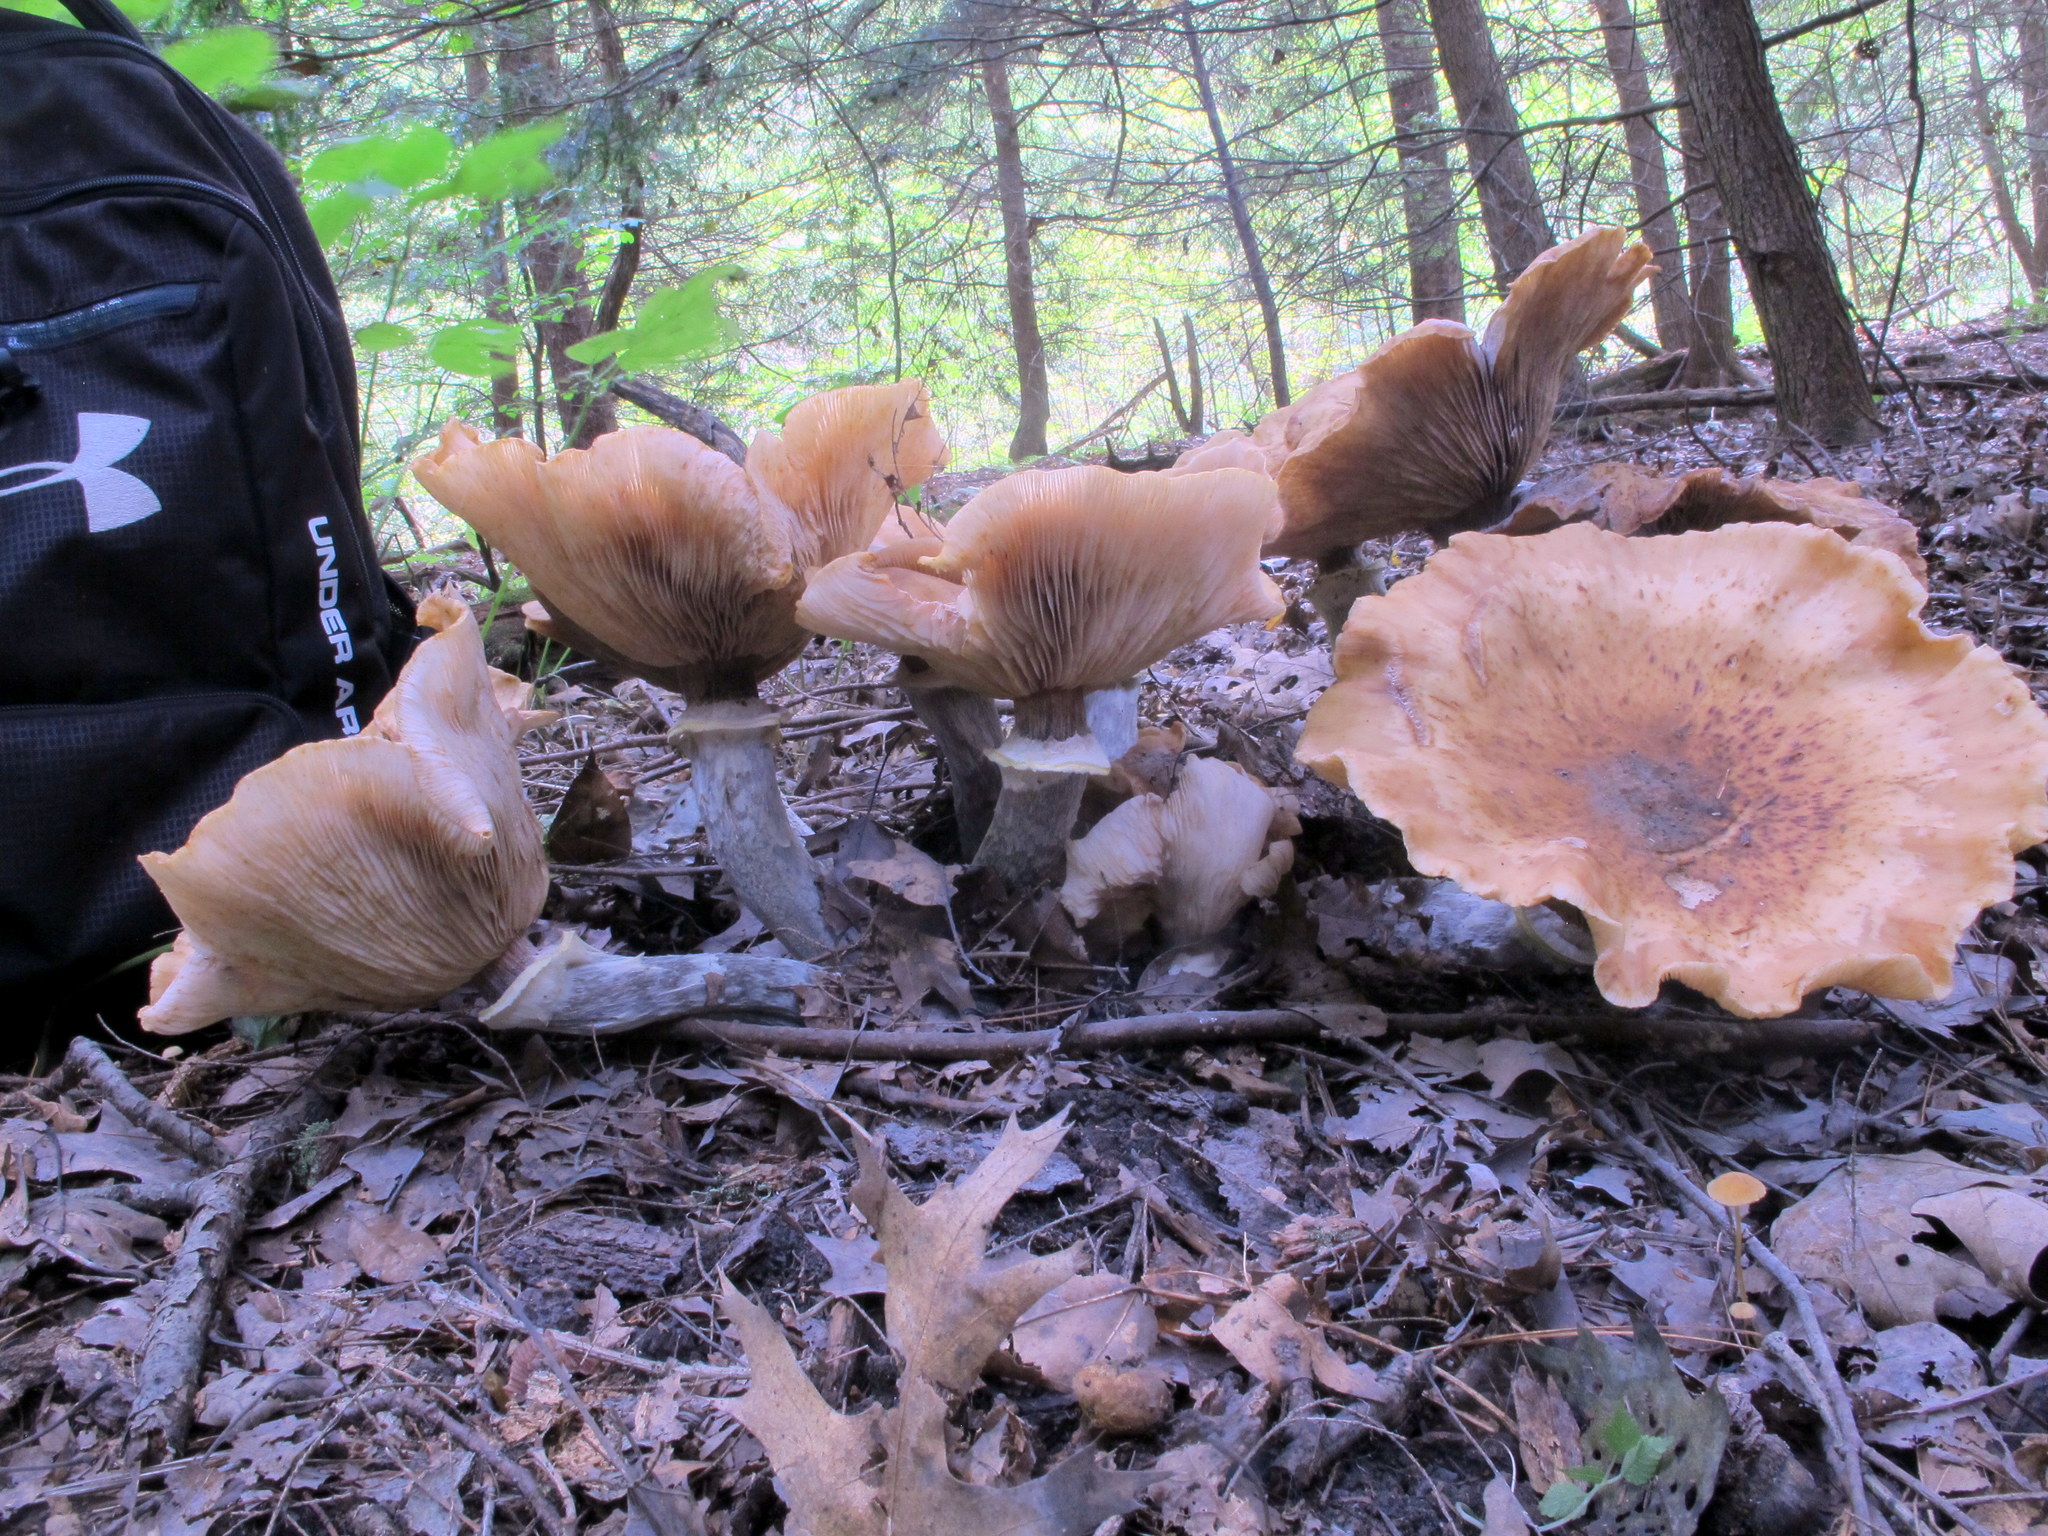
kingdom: Fungi
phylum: Basidiomycota
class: Agaricomycetes
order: Agaricales
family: Physalacriaceae
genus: Armillaria
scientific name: Armillaria mellea
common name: Honey fungus
